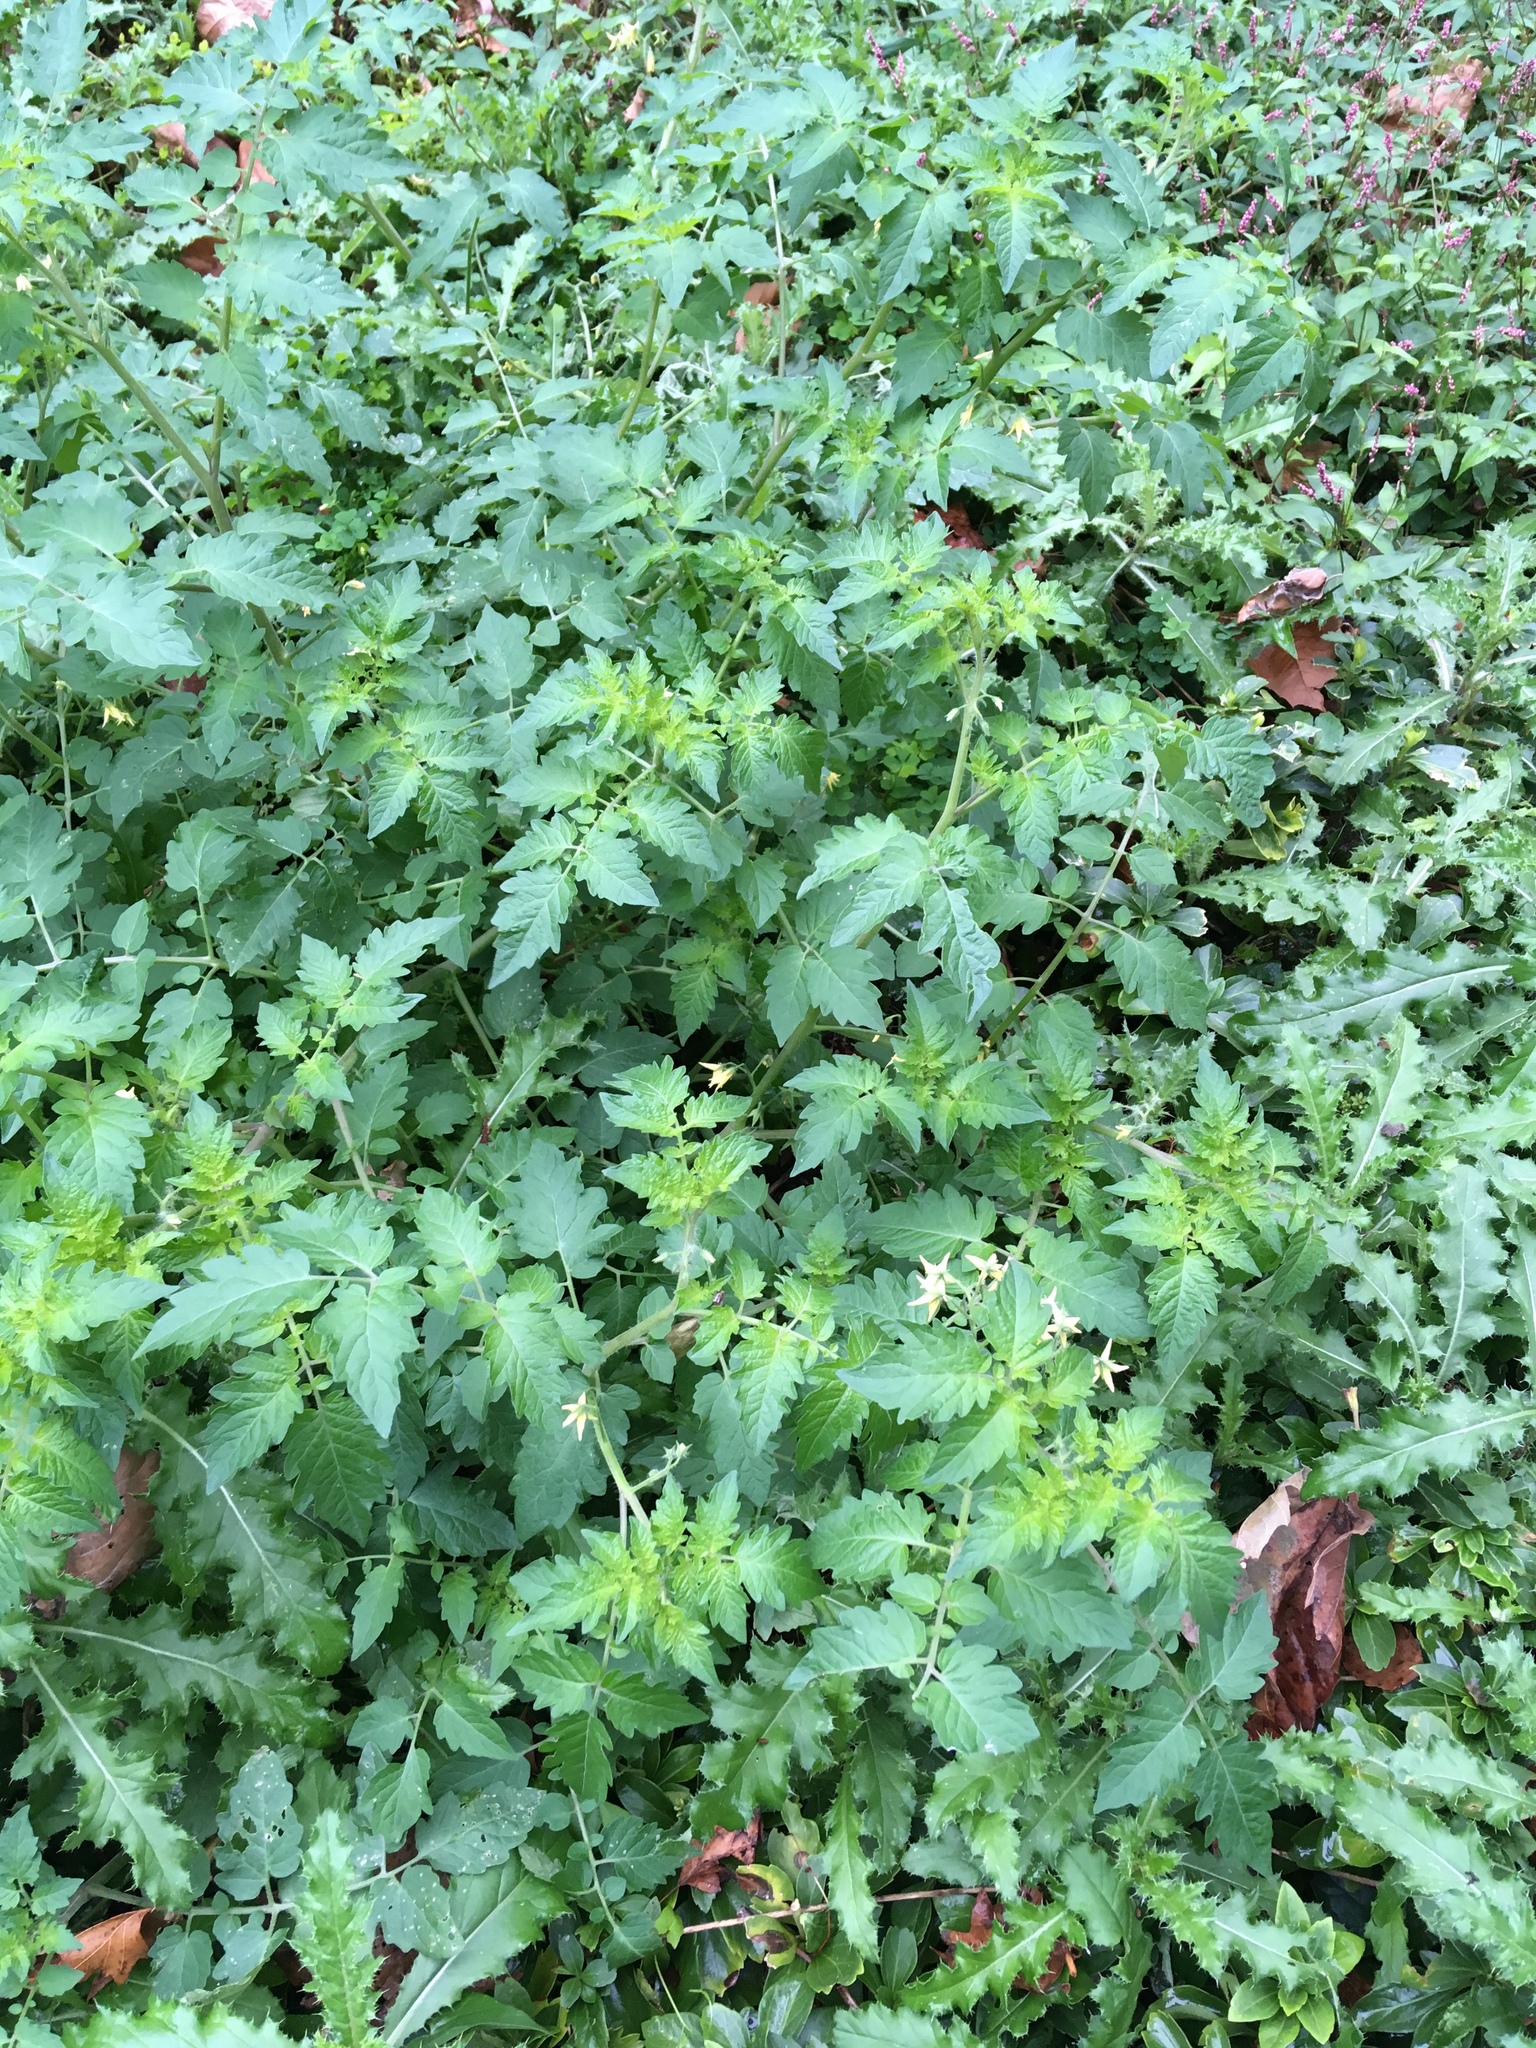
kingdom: Plantae
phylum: Tracheophyta
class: Magnoliopsida
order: Solanales
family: Solanaceae
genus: Solanum
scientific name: Solanum lycopersicum
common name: Garden tomato
